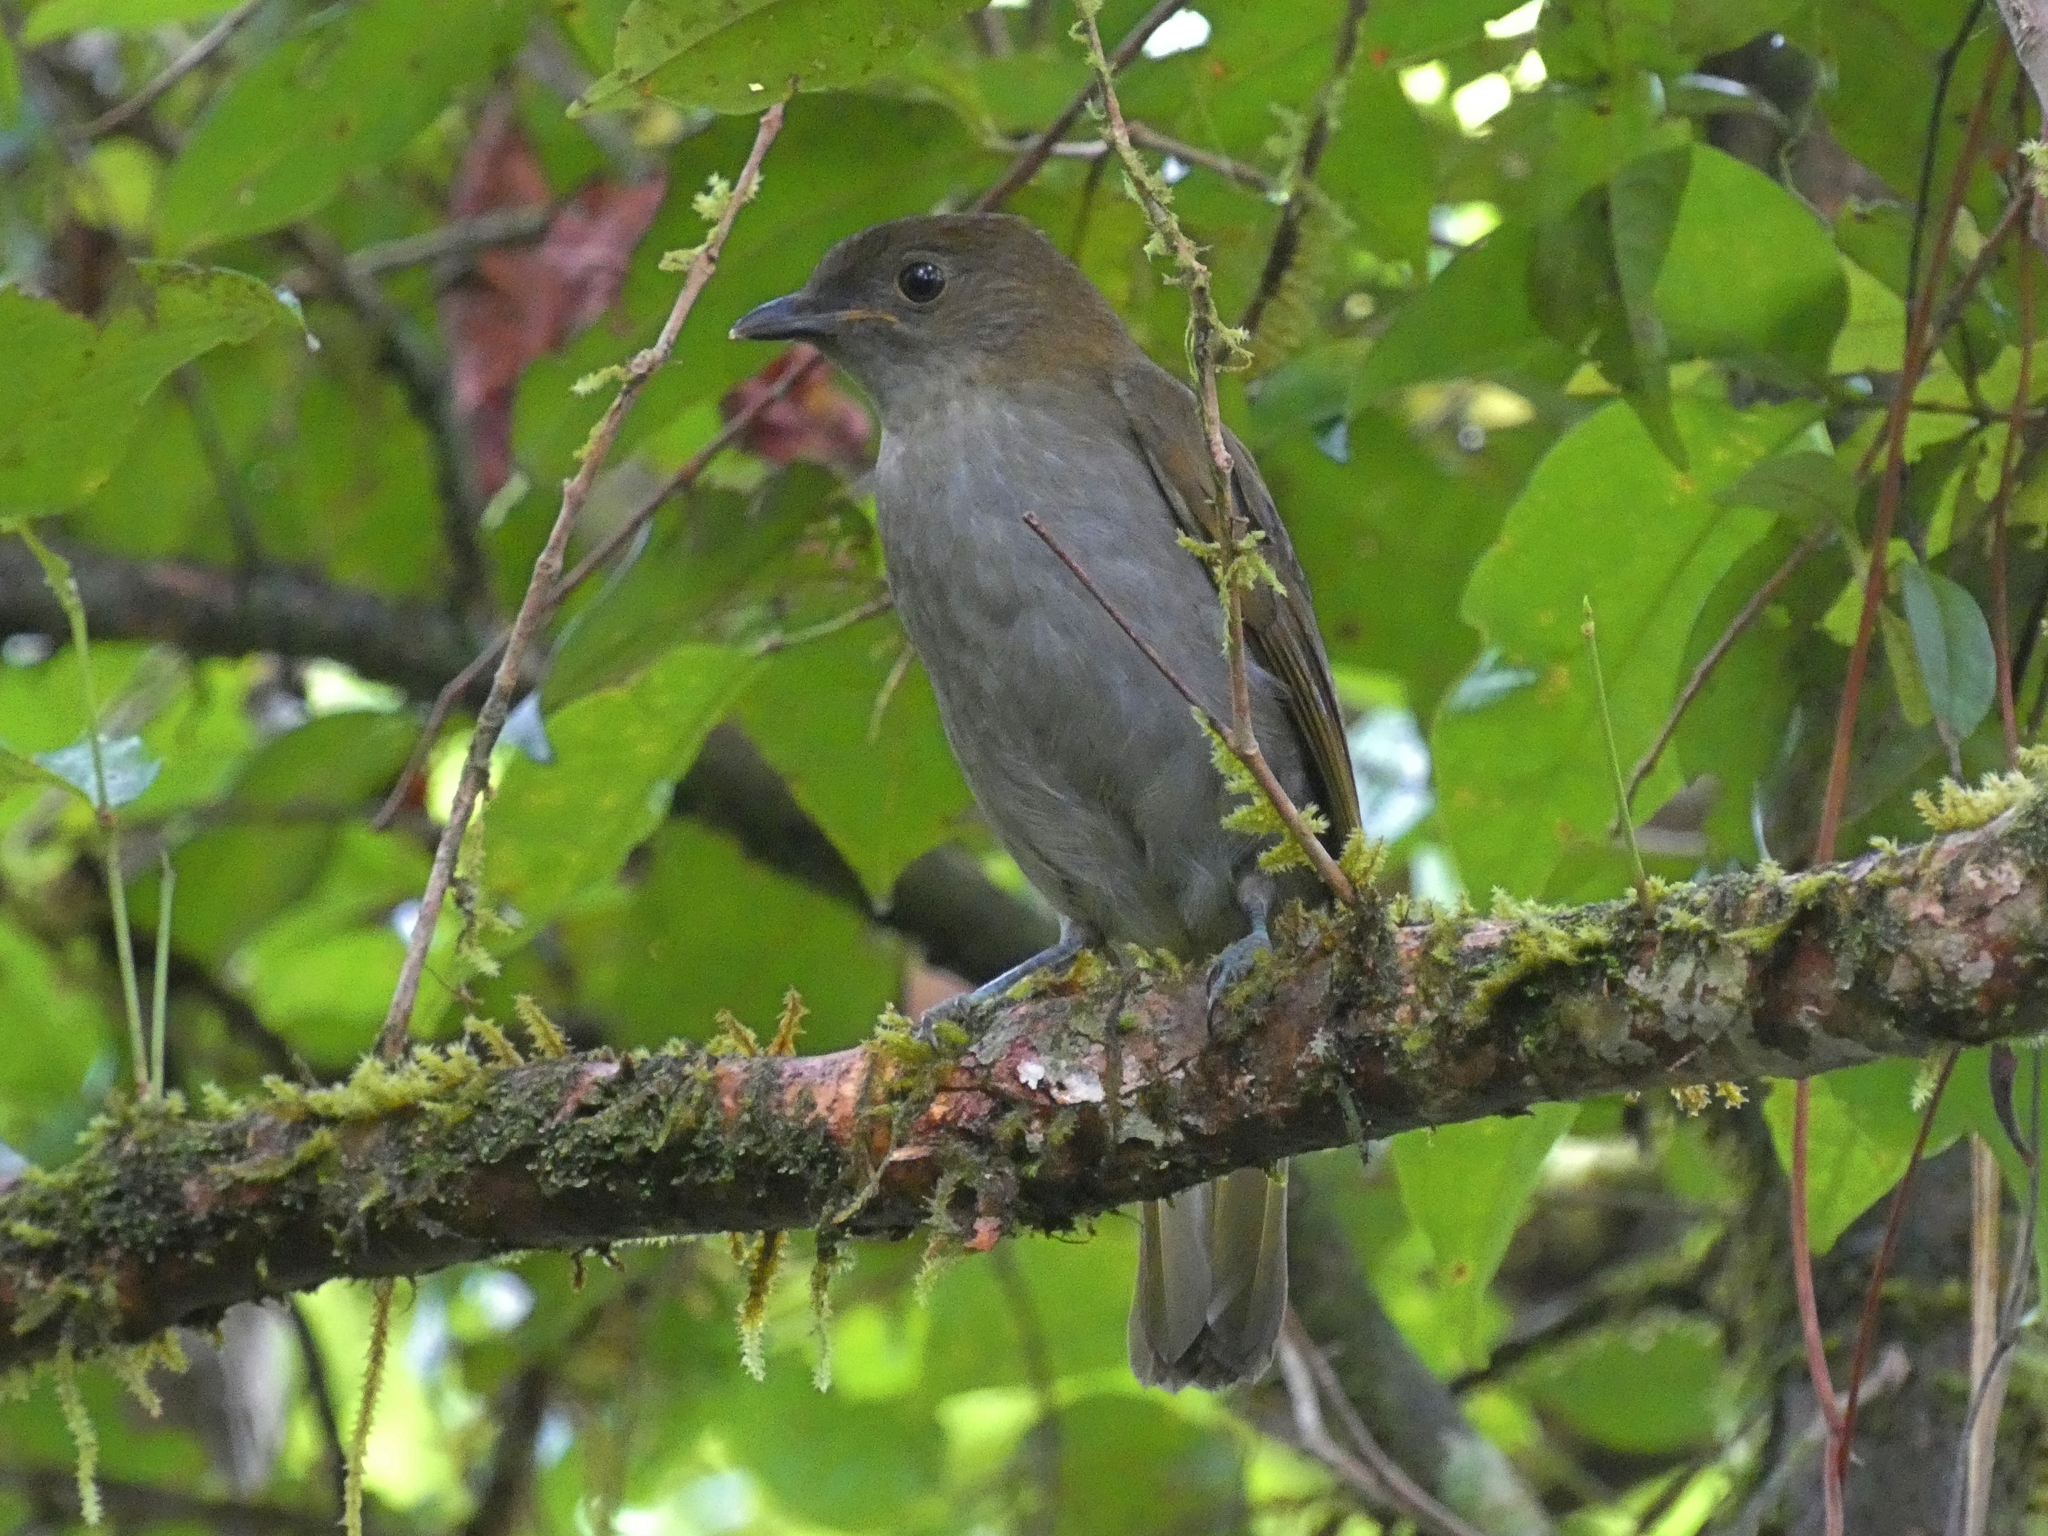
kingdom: Animalia
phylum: Chordata
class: Aves
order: Passeriformes
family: Ptilonorhynchidae
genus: Prionodura
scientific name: Prionodura newtoniana
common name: Golden bowerbird
